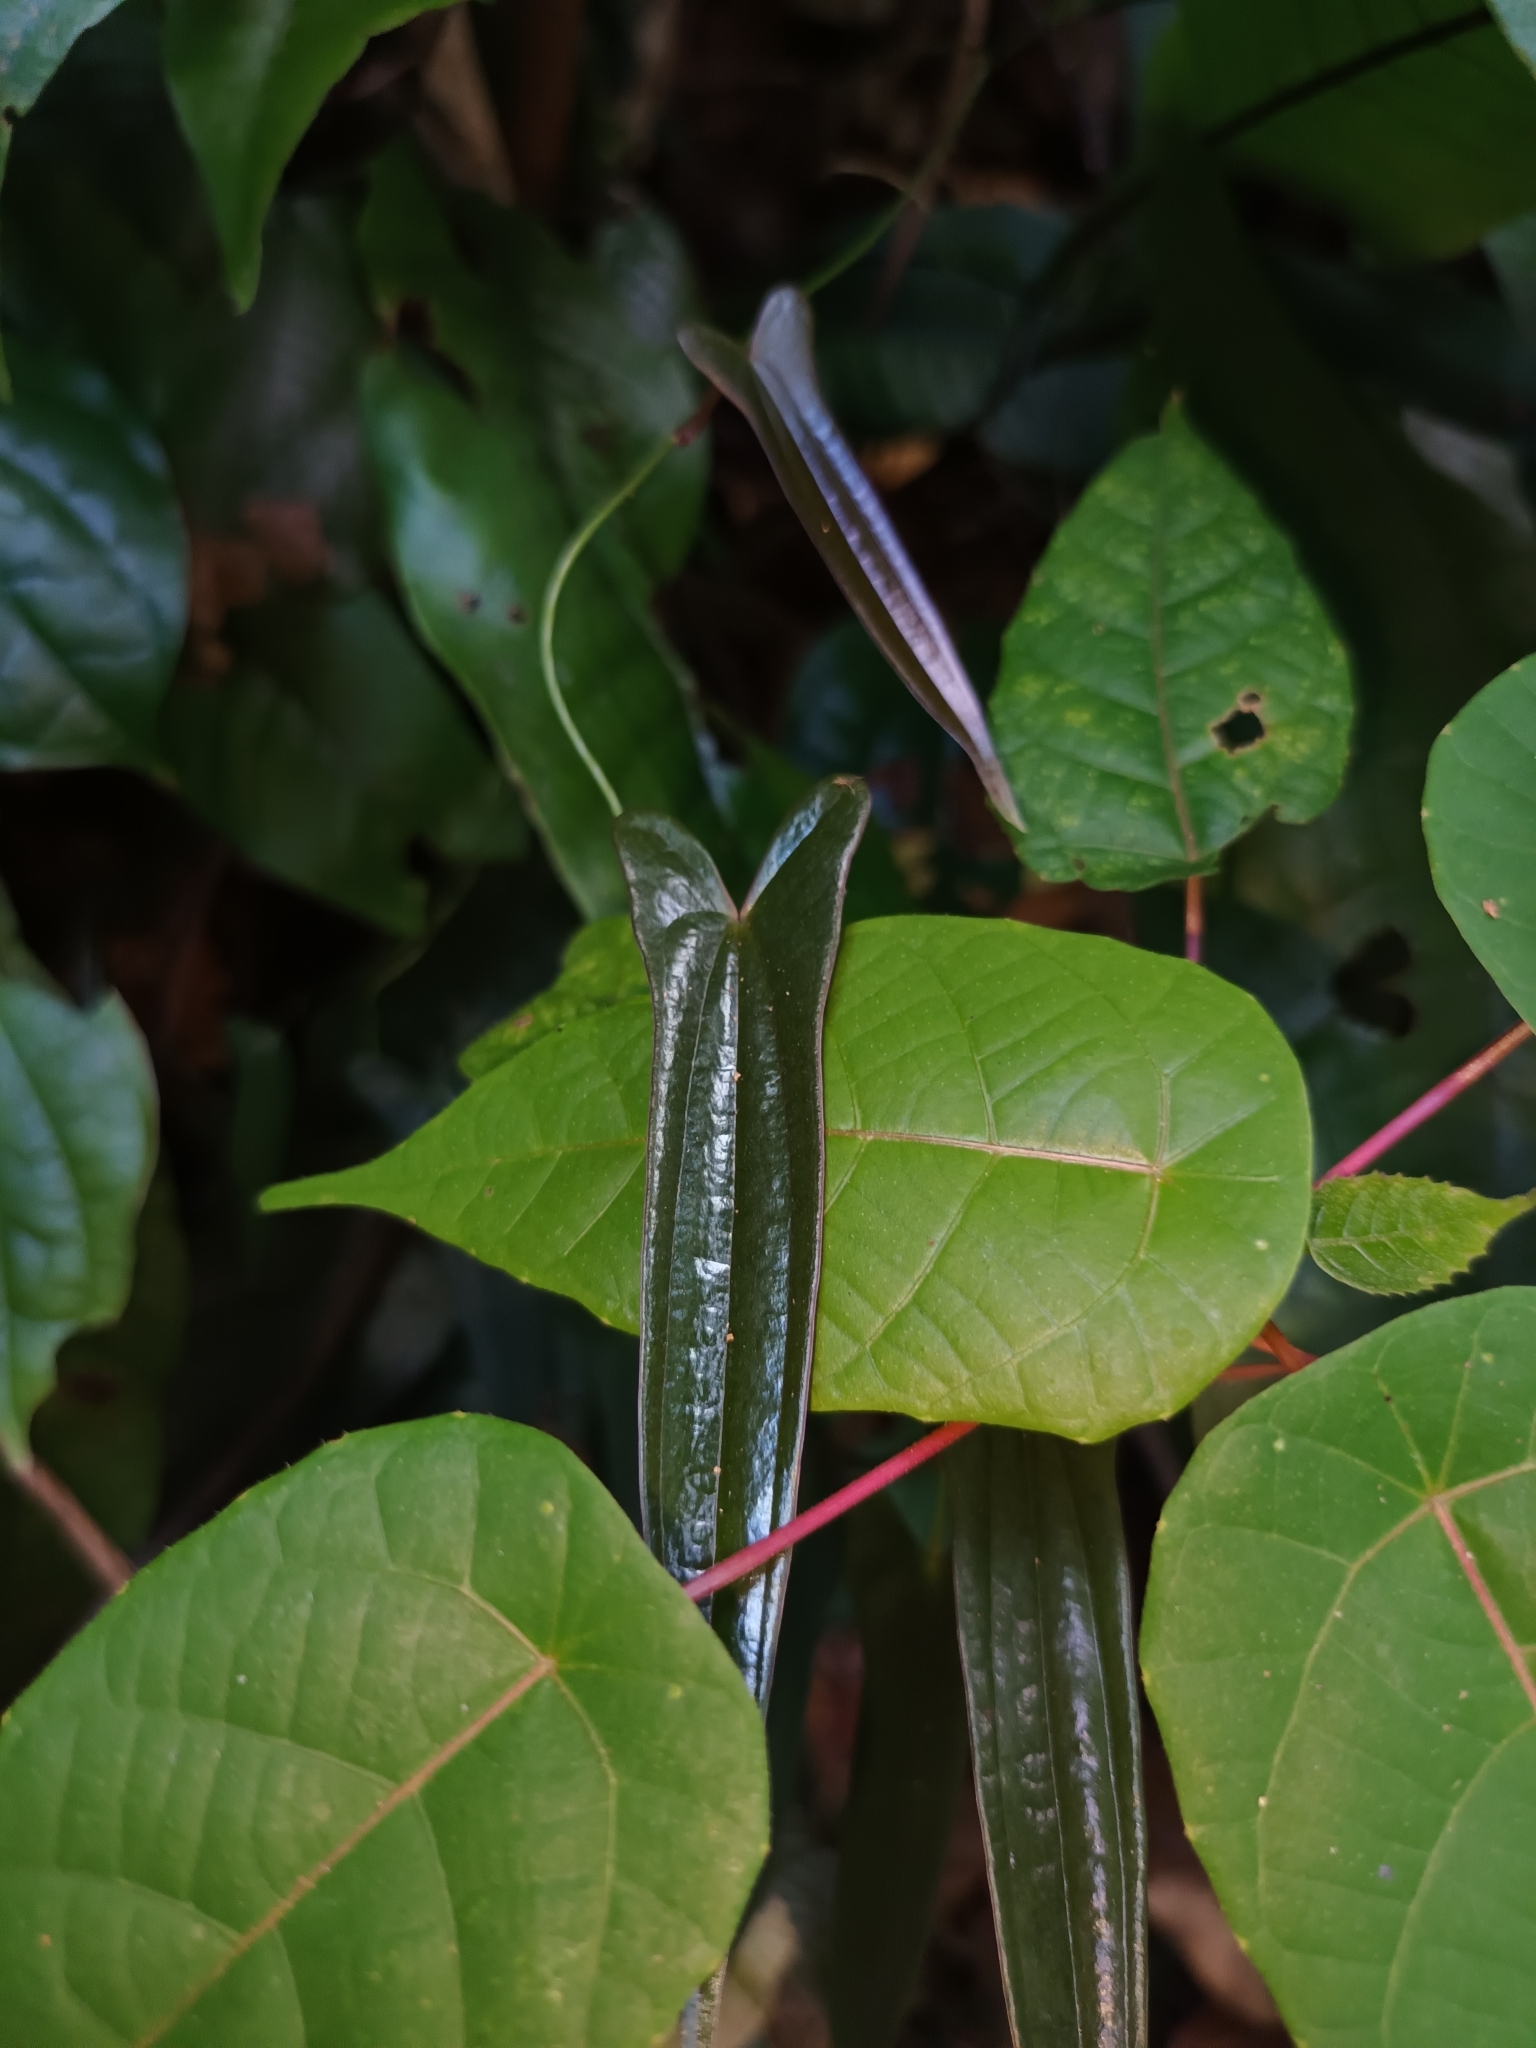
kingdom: Plantae
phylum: Tracheophyta
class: Liliopsida
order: Dioscoreales
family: Dioscoreaceae
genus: Dioscorea
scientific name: Dioscorea kingii
